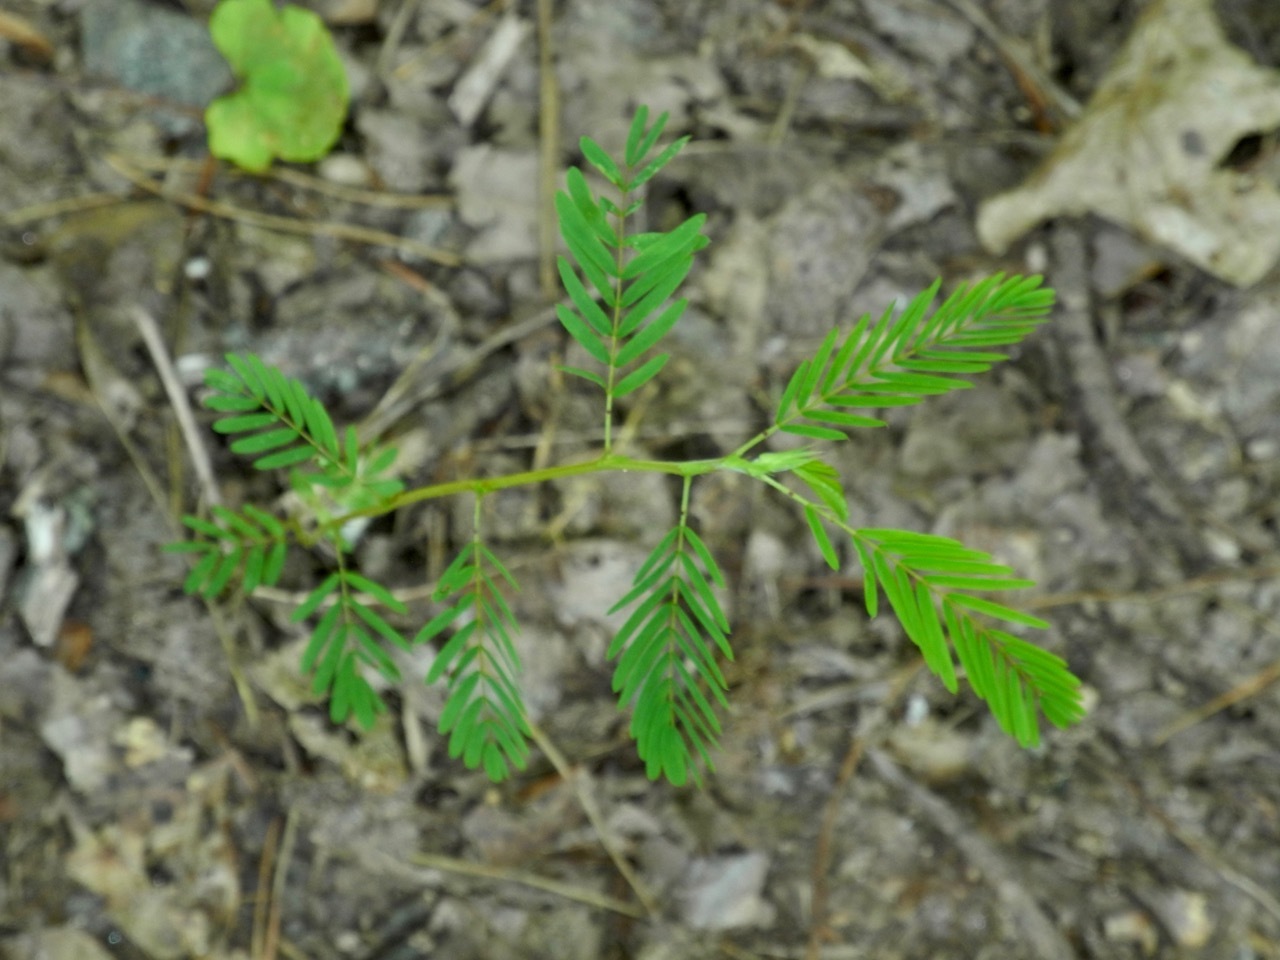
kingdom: Plantae
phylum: Tracheophyta
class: Magnoliopsida
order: Fabales
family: Fabaceae
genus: Chamaecrista
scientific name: Chamaecrista nictitans
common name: Sensitive cassia
